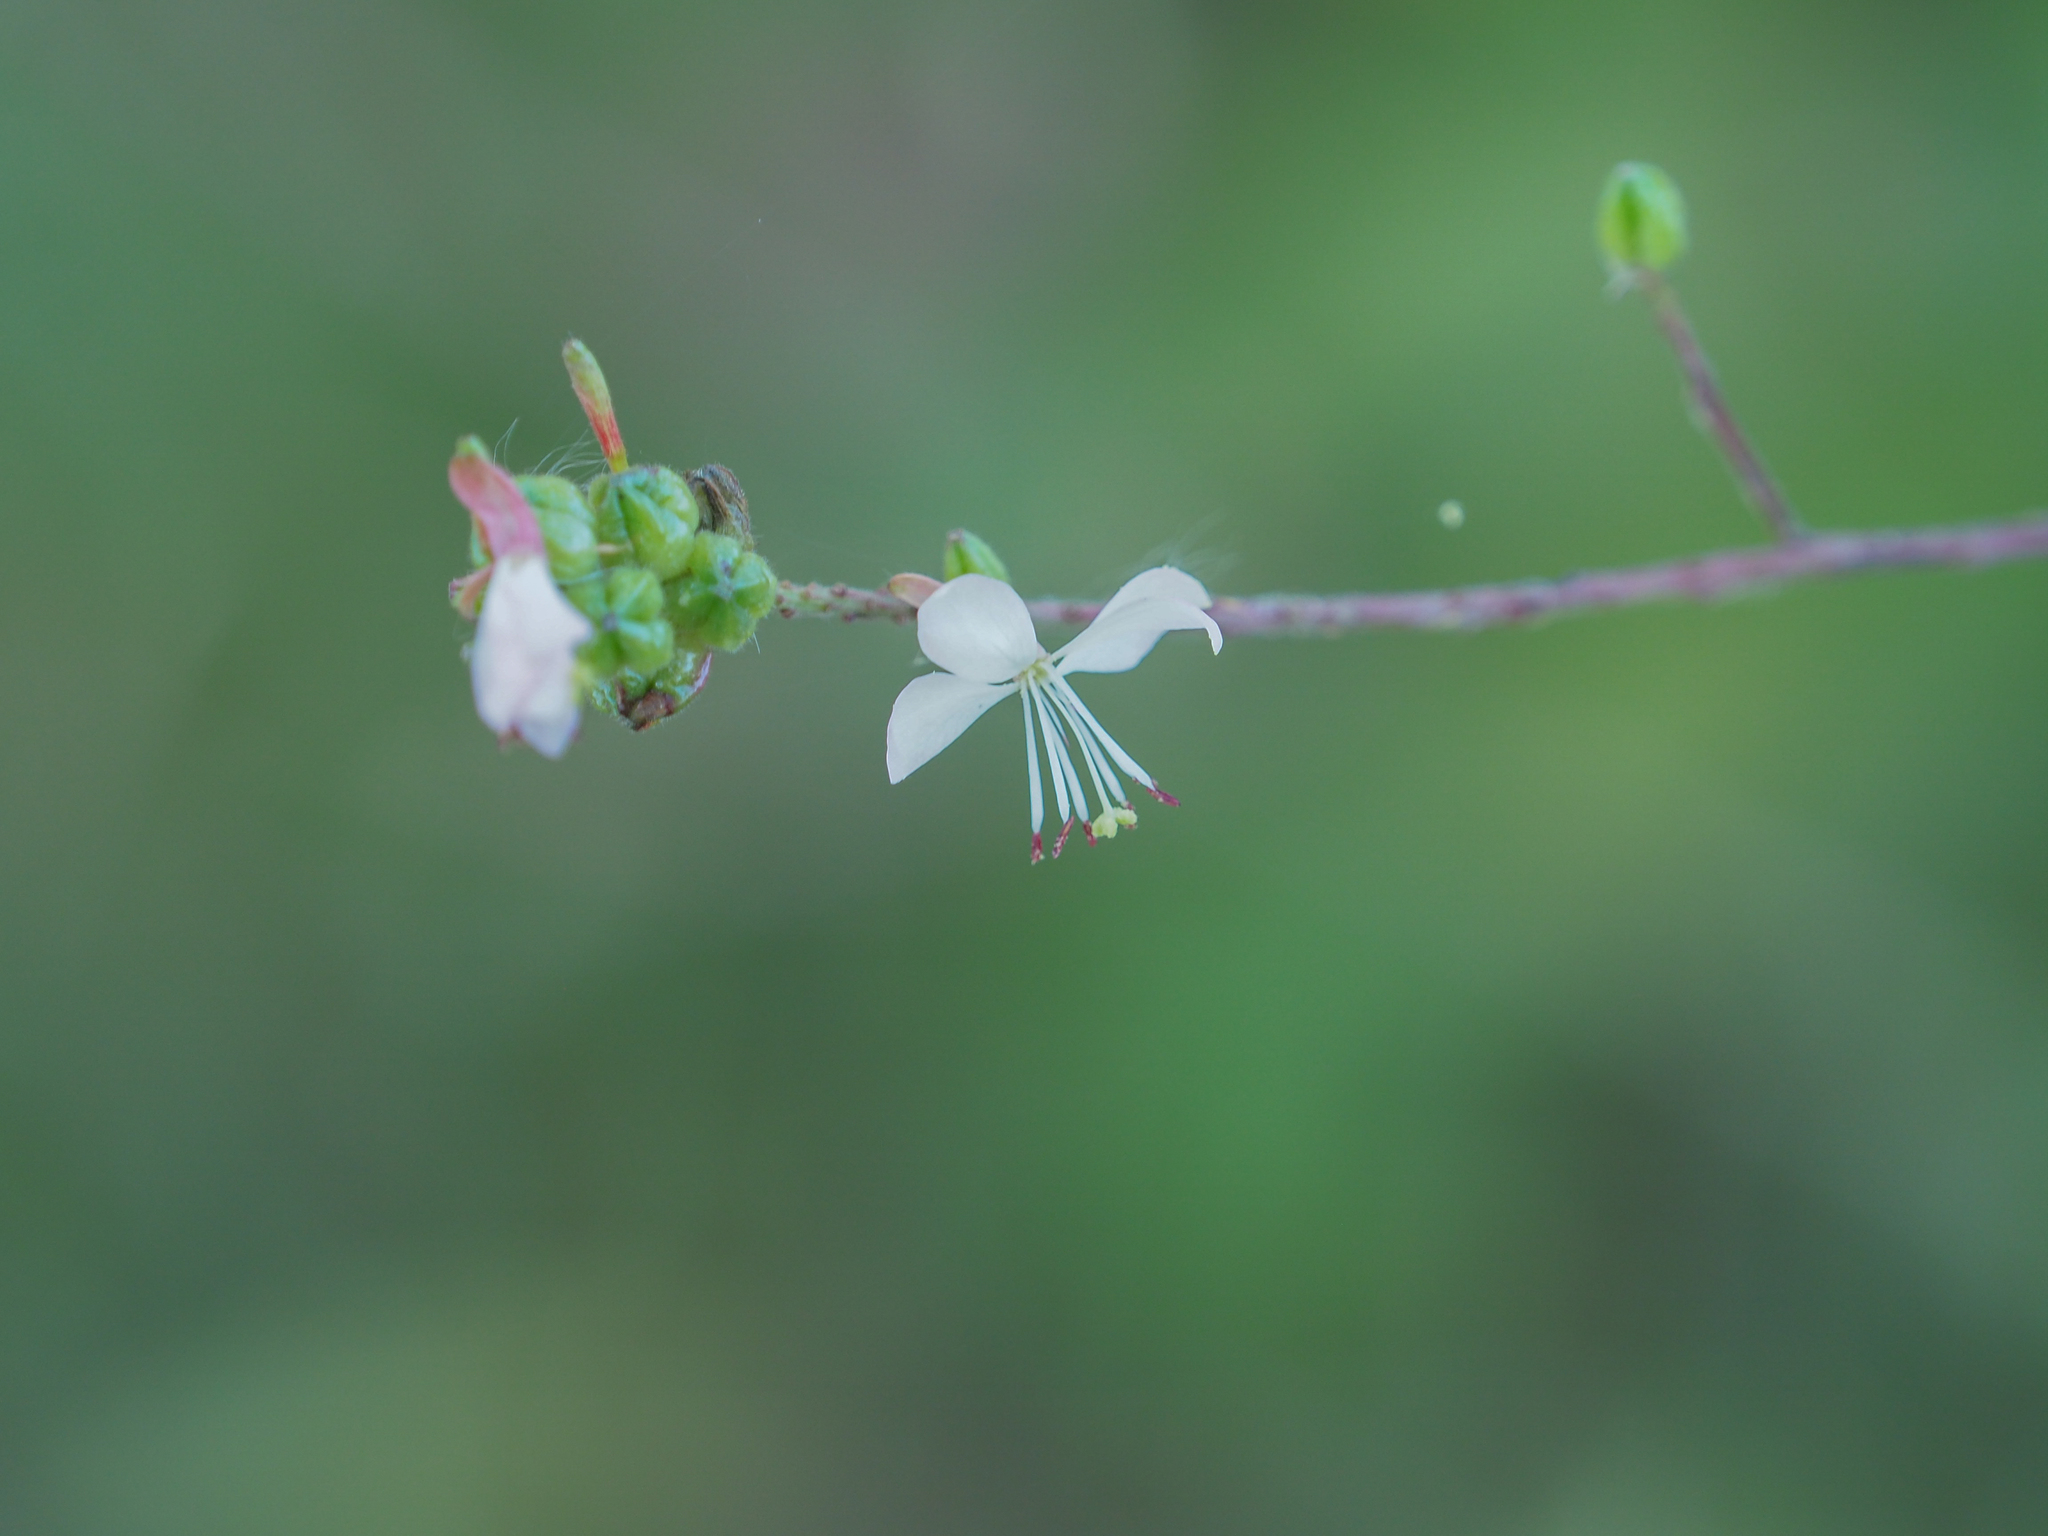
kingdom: Plantae
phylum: Tracheophyta
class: Magnoliopsida
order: Myrtales
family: Onagraceae
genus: Oenothera
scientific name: Oenothera gaura
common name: Biennial beeblossom
